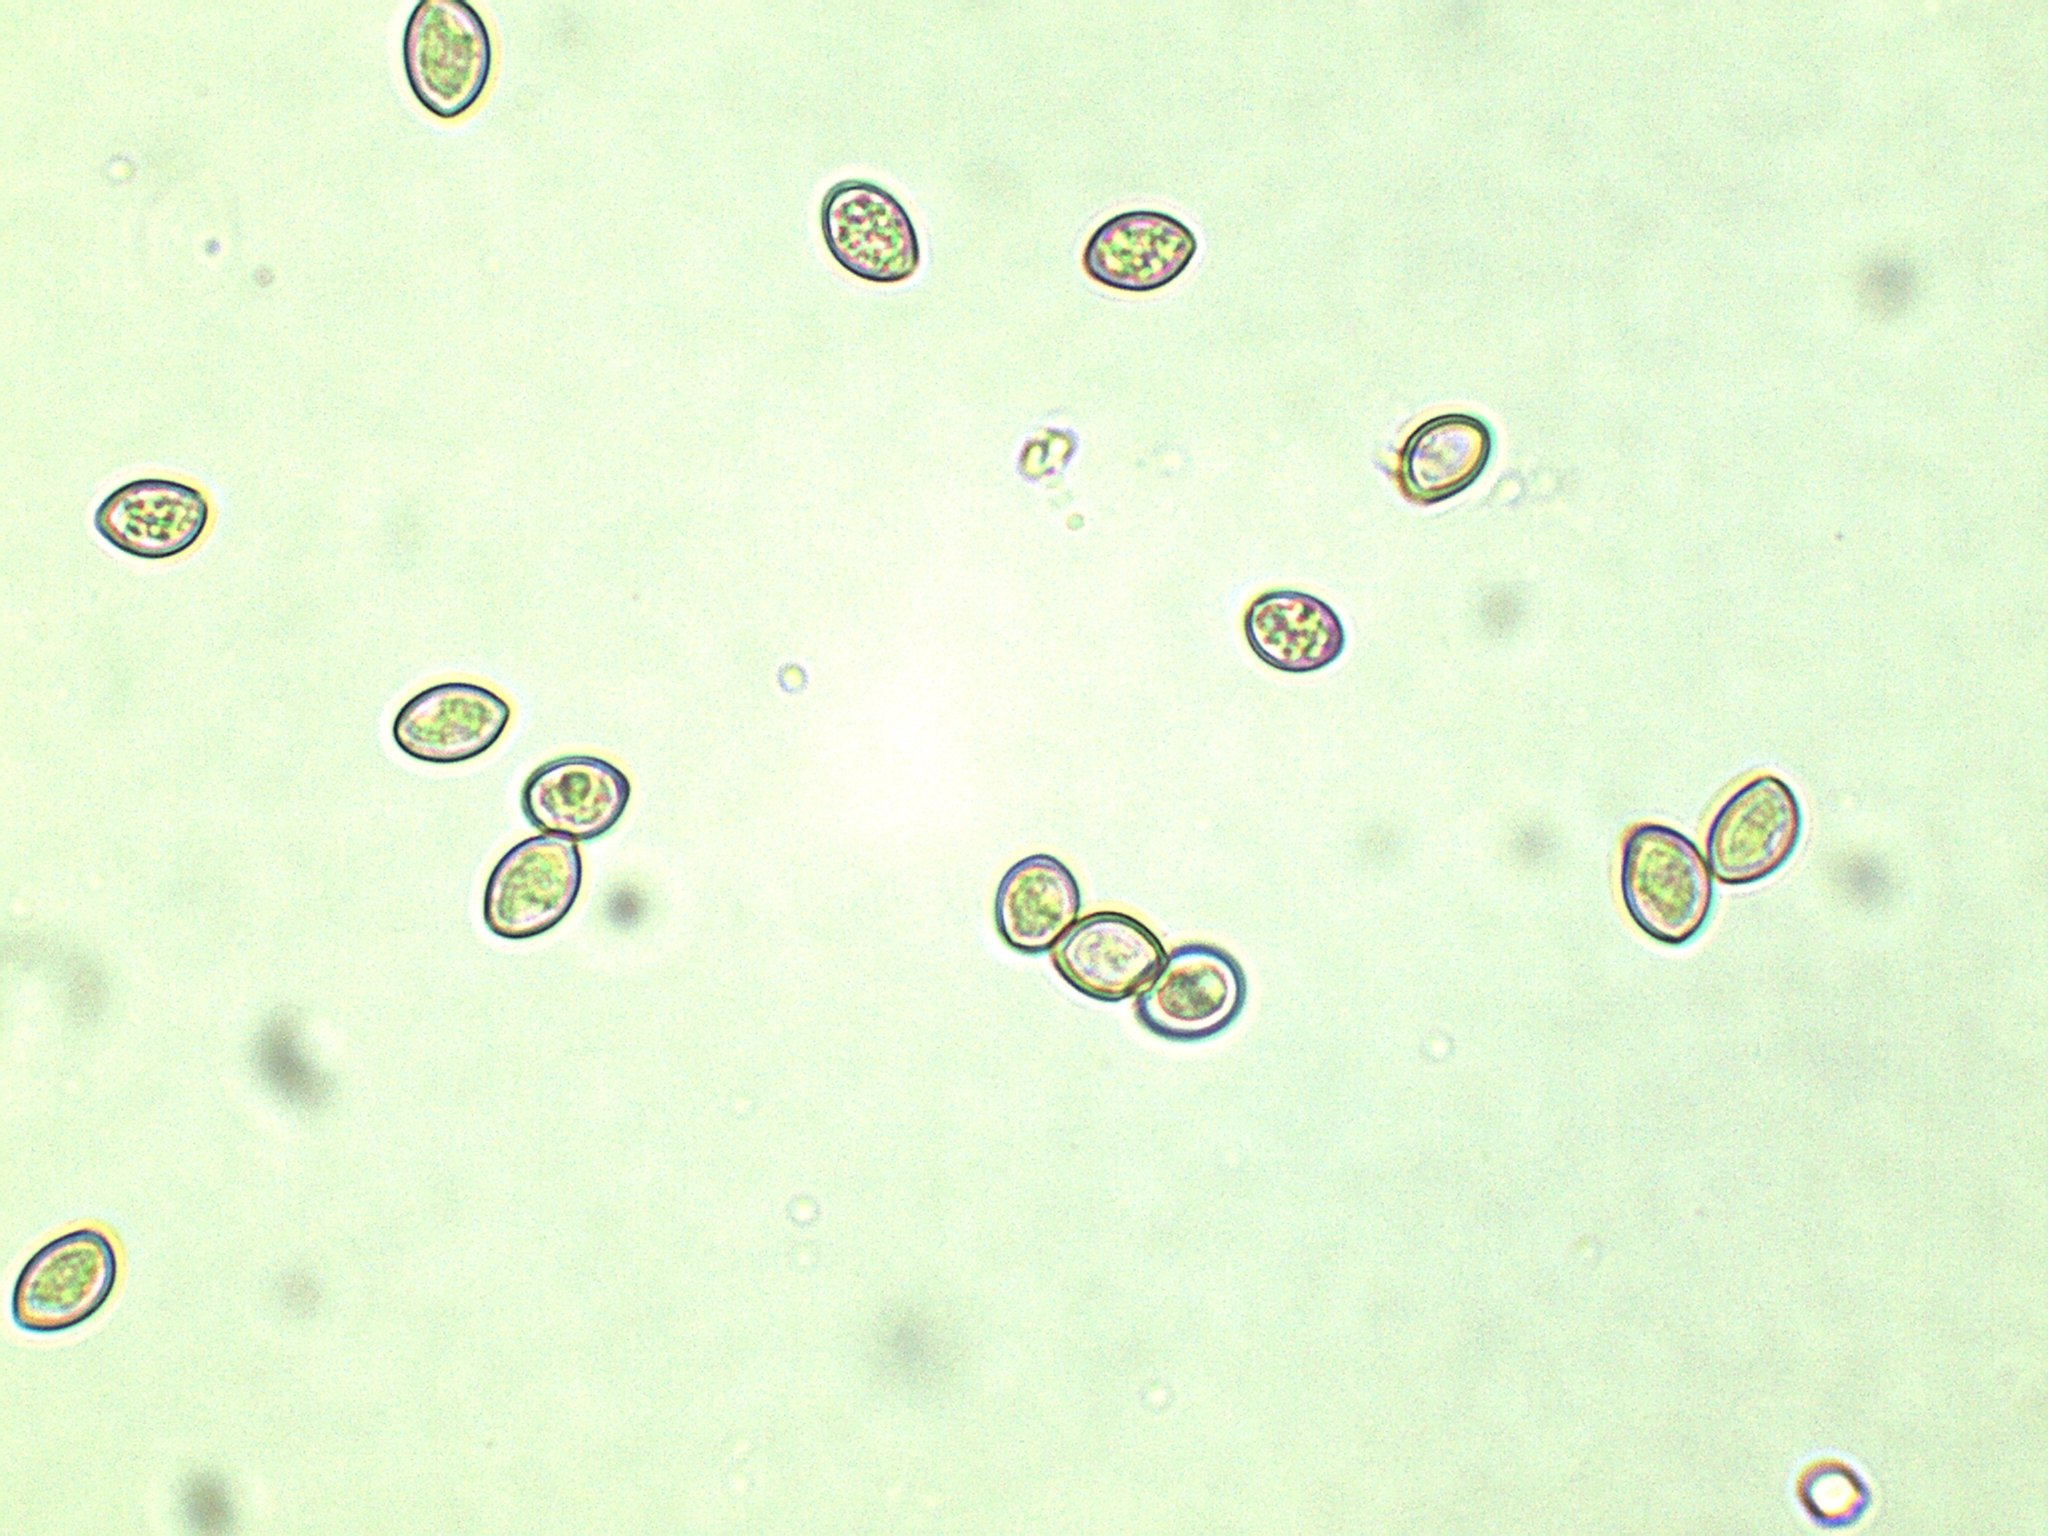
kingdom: Fungi
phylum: Basidiomycota
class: Agaricomycetes
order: Agaricales
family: Crepidotaceae
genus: Crepidotus
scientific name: Crepidotus calolepis
